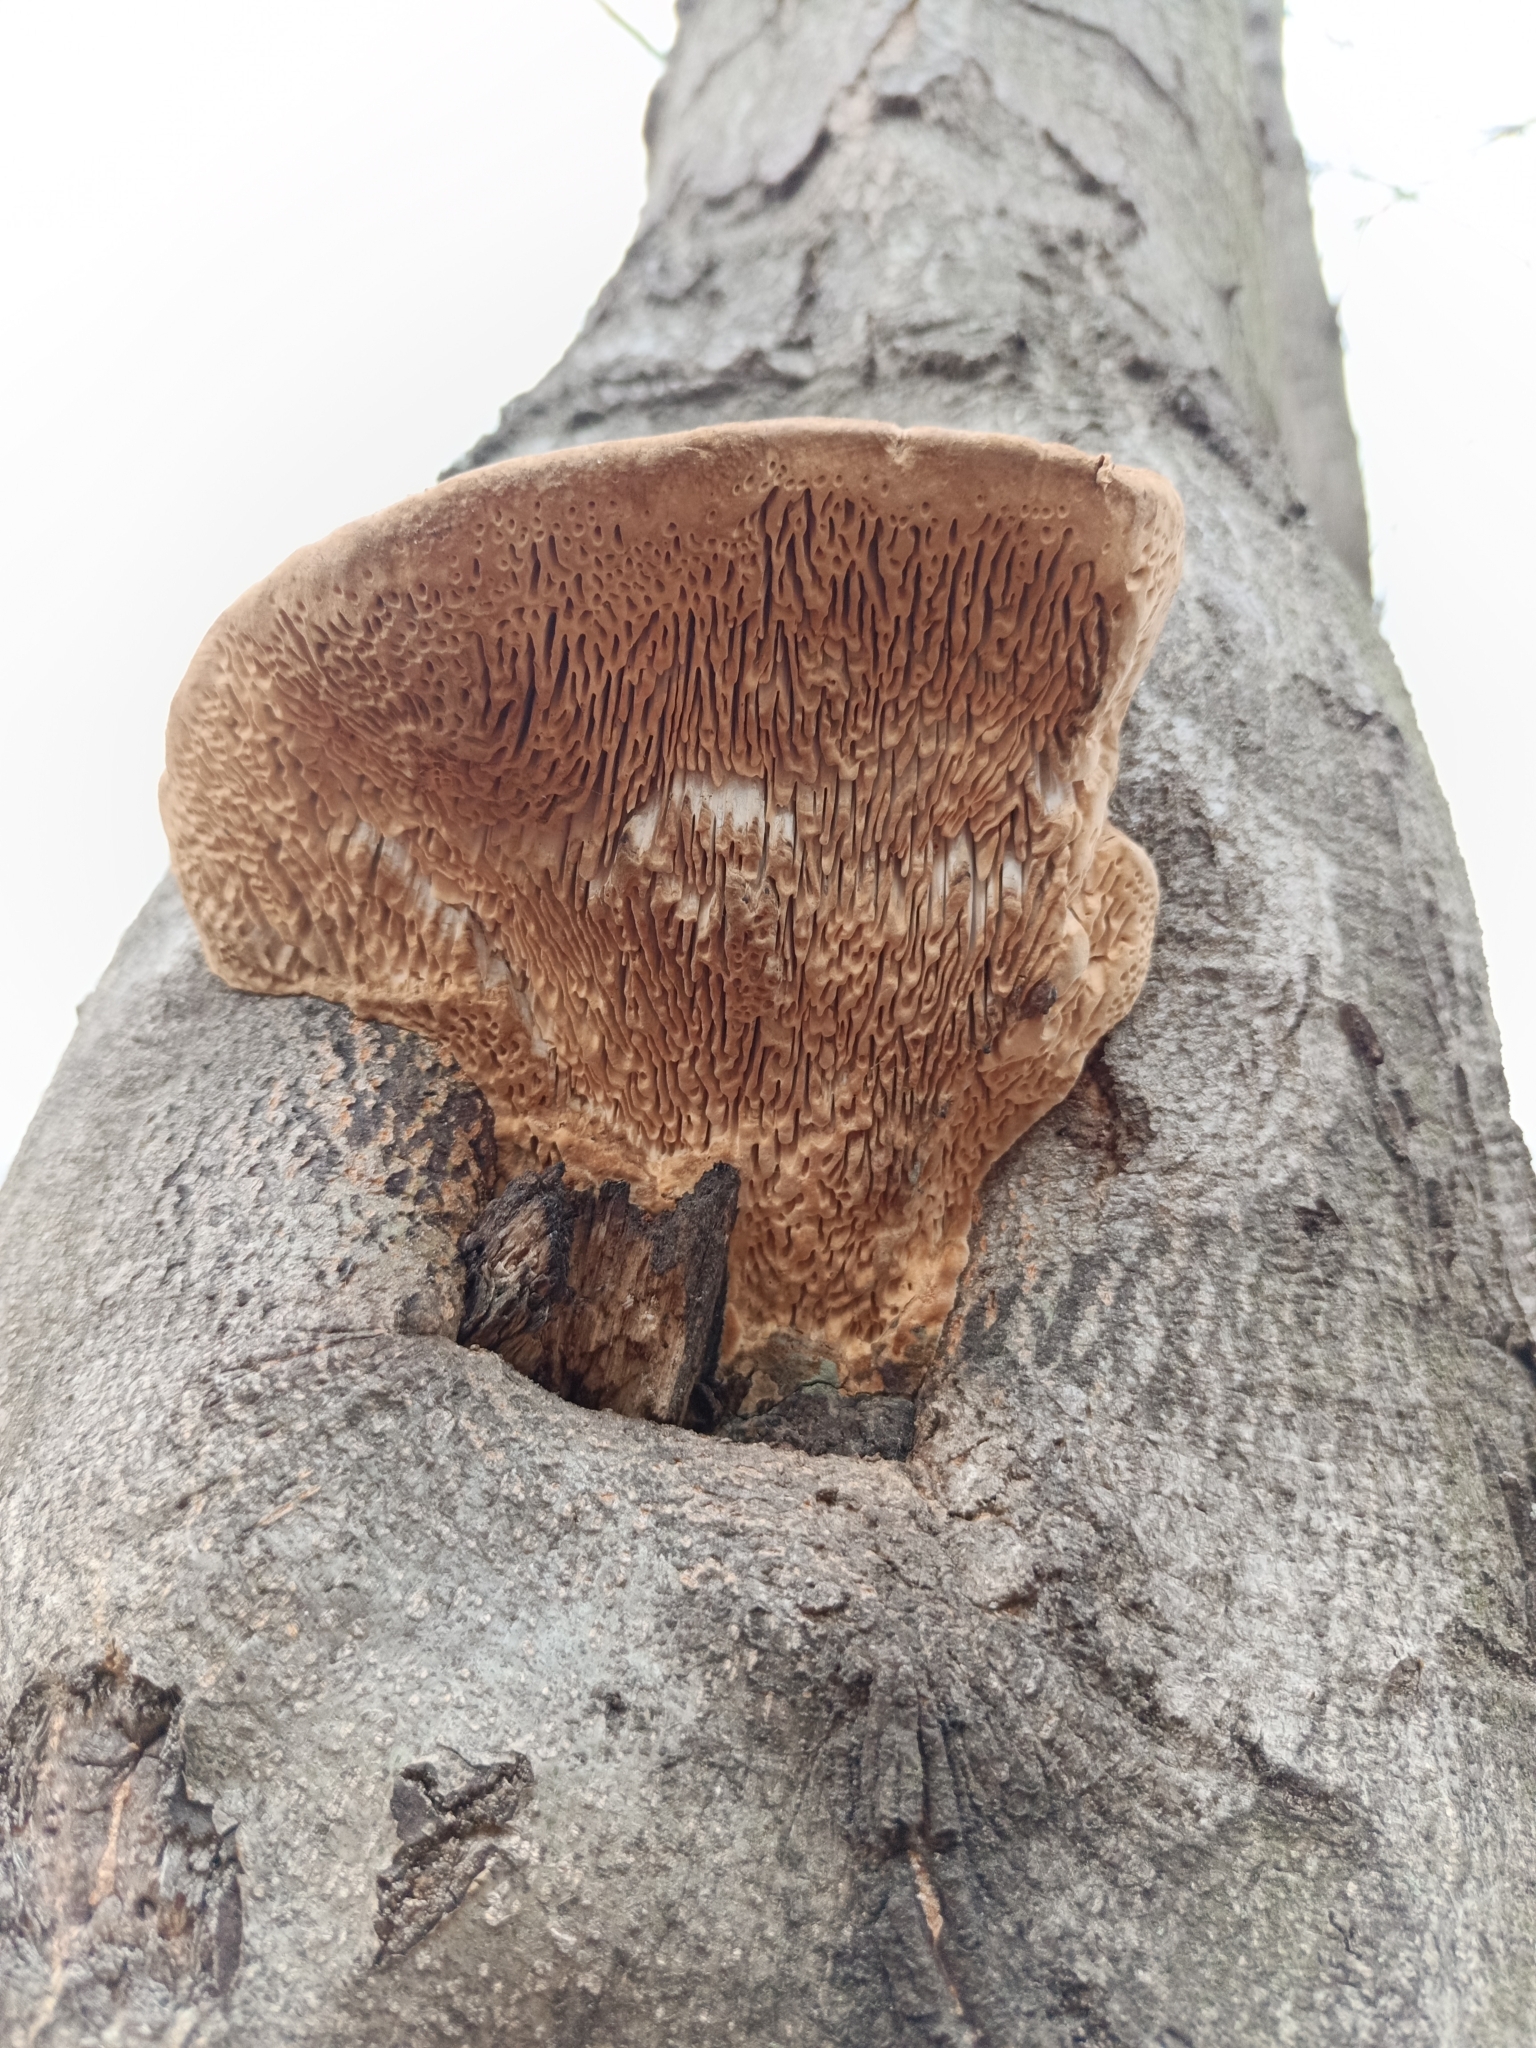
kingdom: Fungi
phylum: Basidiomycota
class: Agaricomycetes
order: Polyporales
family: Fomitopsidaceae
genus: Fomitopsis
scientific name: Fomitopsis
